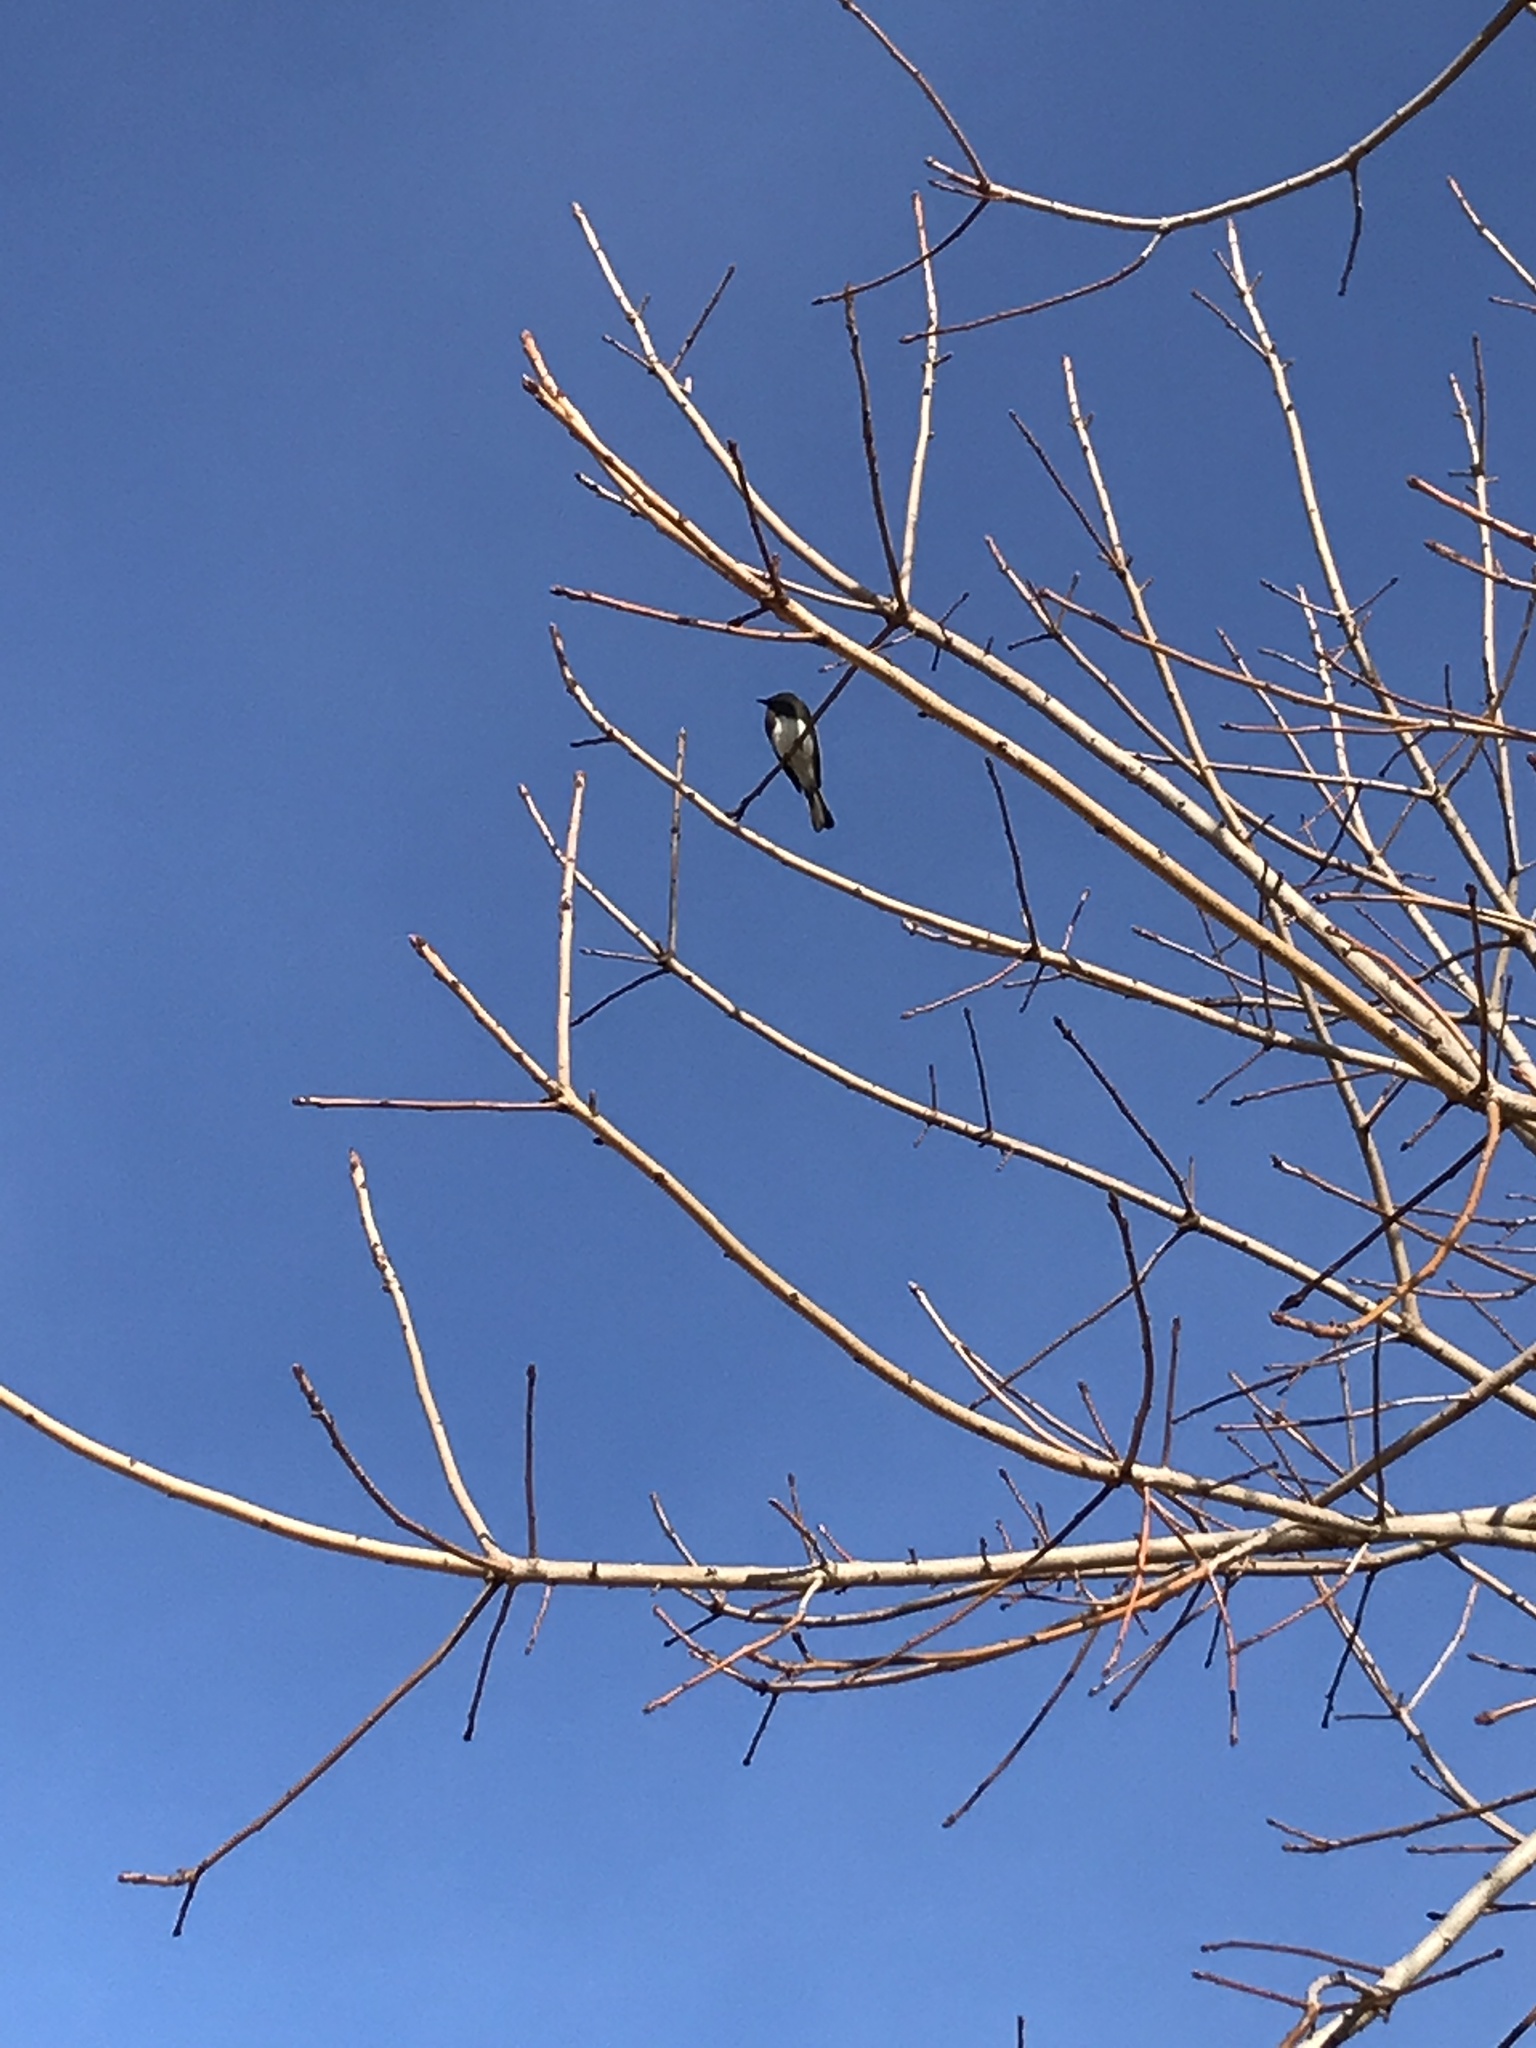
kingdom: Animalia
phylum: Chordata
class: Aves
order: Passeriformes
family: Tyrannidae
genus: Sayornis
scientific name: Sayornis nigricans
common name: Black phoebe
